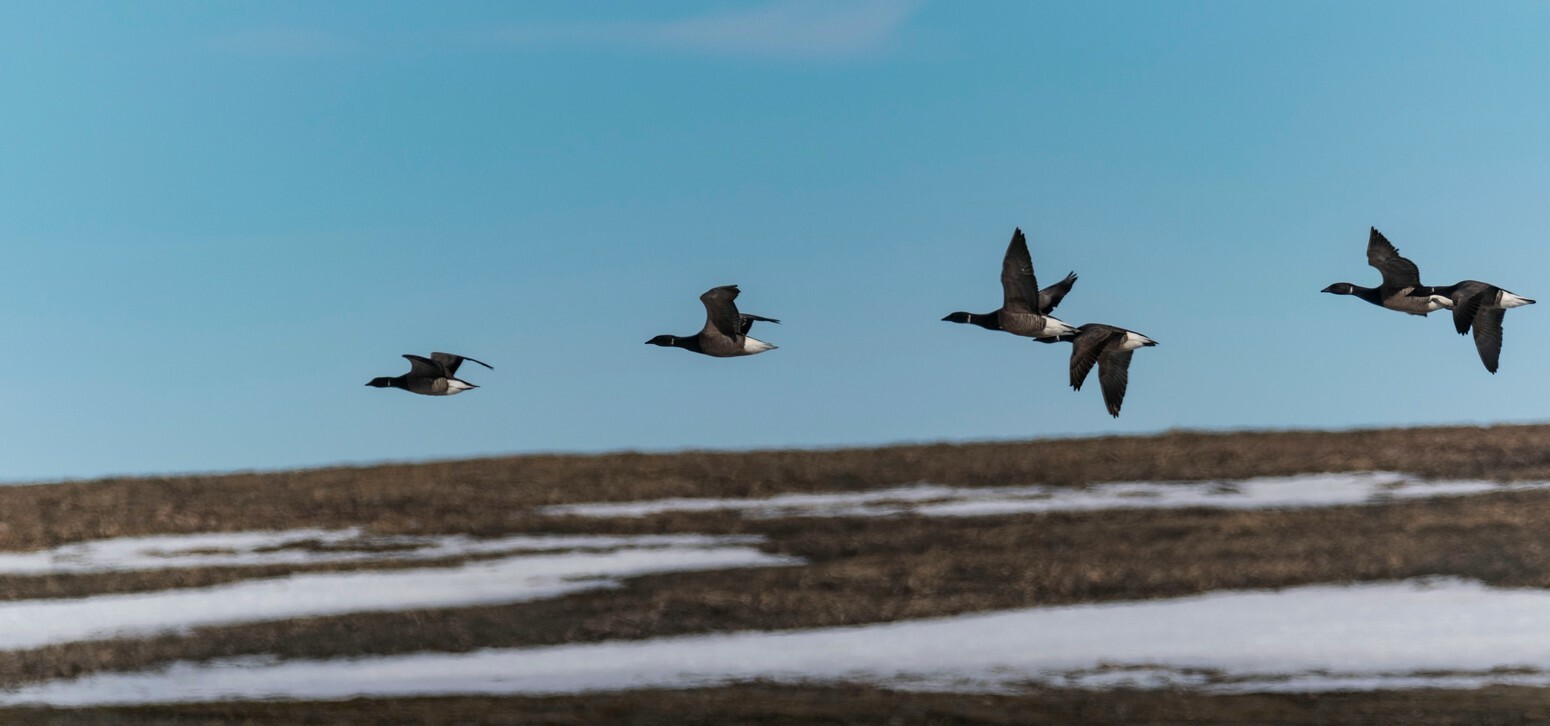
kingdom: Animalia
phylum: Chordata
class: Aves
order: Anseriformes
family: Anatidae
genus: Branta
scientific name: Branta bernicla
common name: Brant goose
